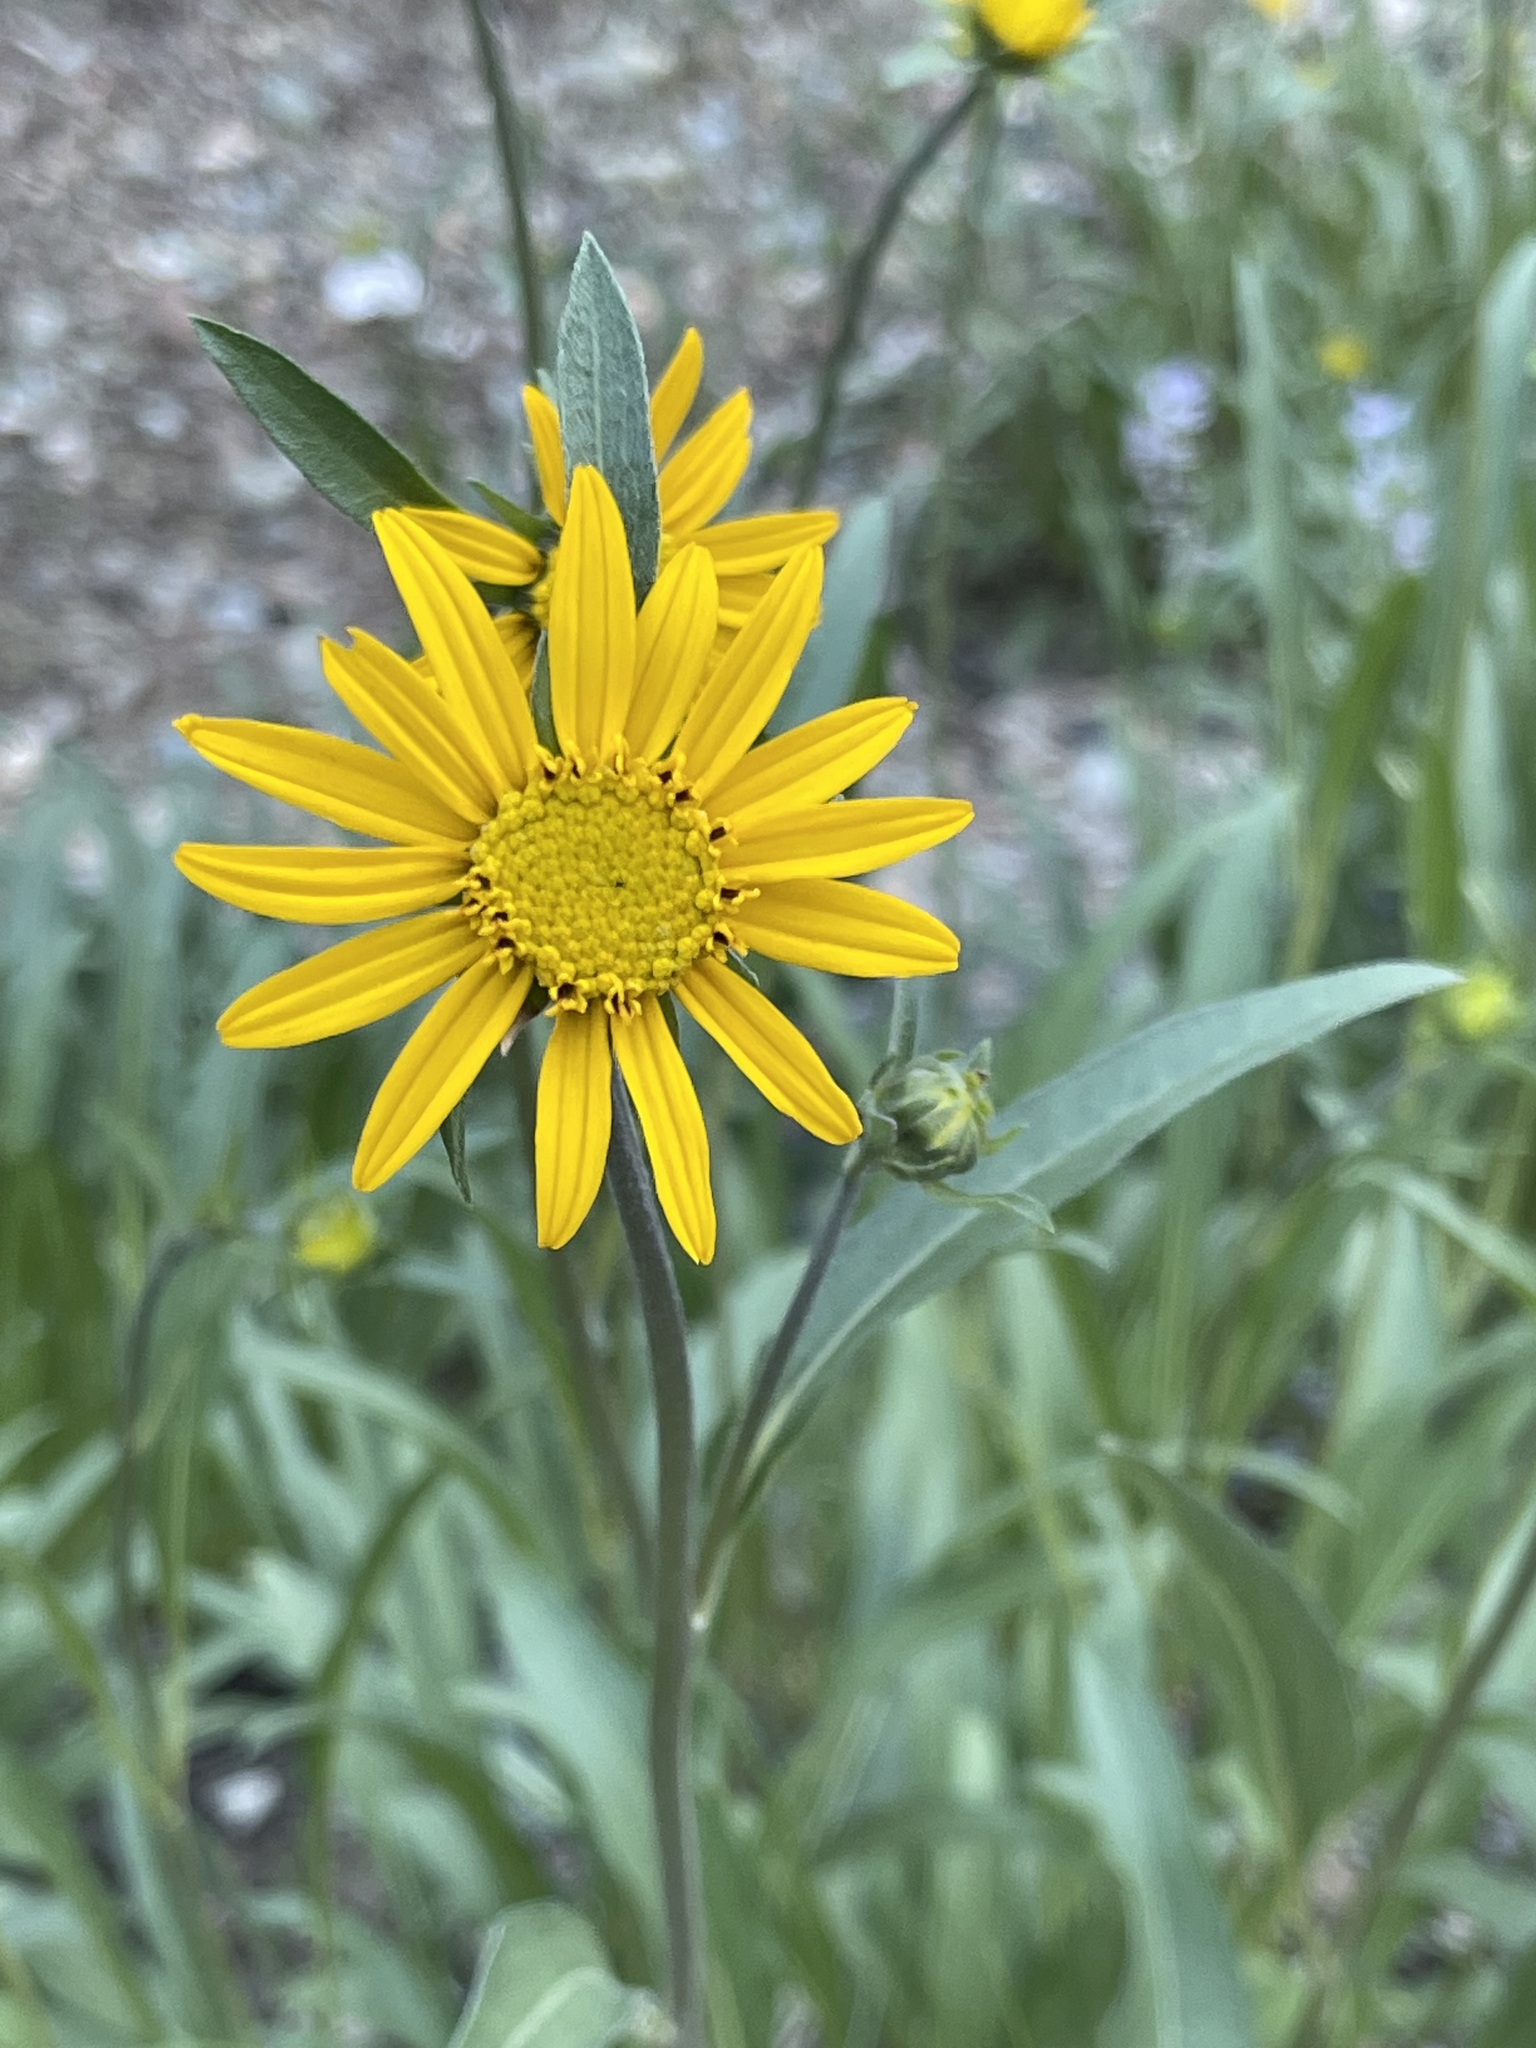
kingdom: Plantae
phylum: Tracheophyta
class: Magnoliopsida
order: Asterales
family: Asteraceae
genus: Helianthella
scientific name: Helianthella californica
